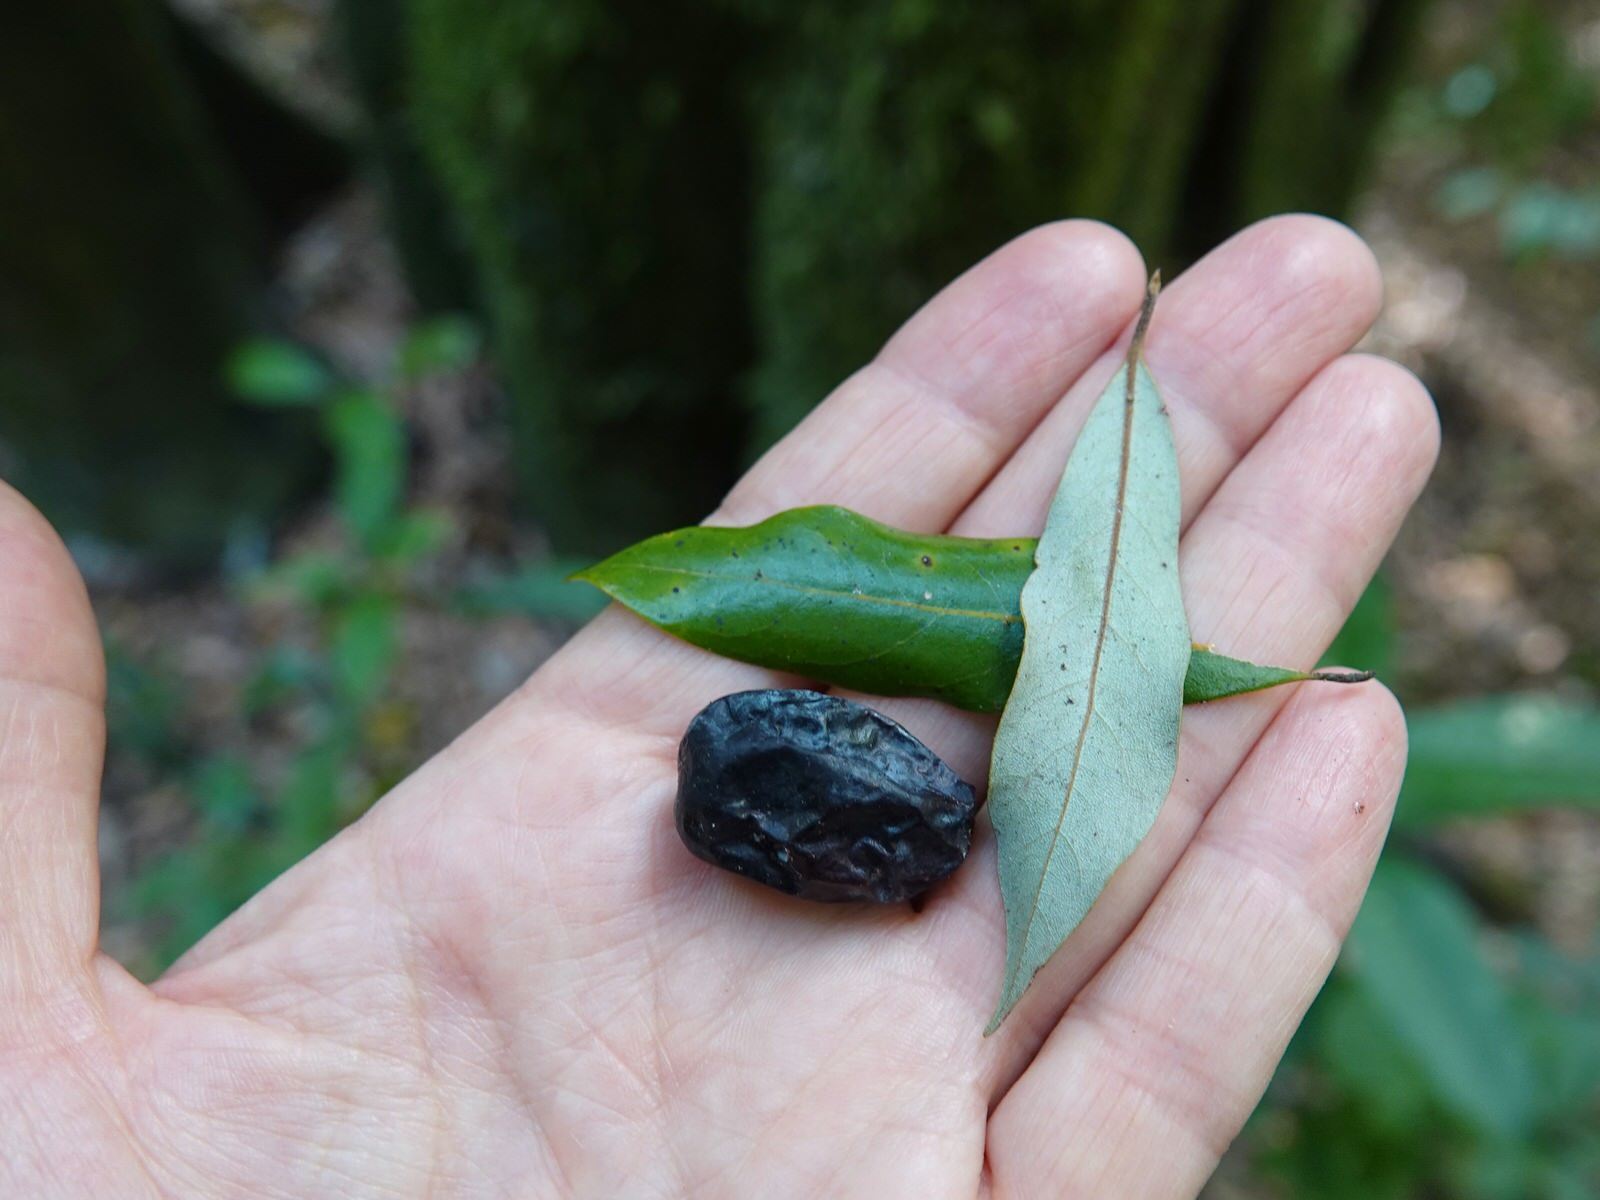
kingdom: Plantae
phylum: Tracheophyta
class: Magnoliopsida
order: Laurales
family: Lauraceae
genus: Beilschmiedia
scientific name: Beilschmiedia tawa
